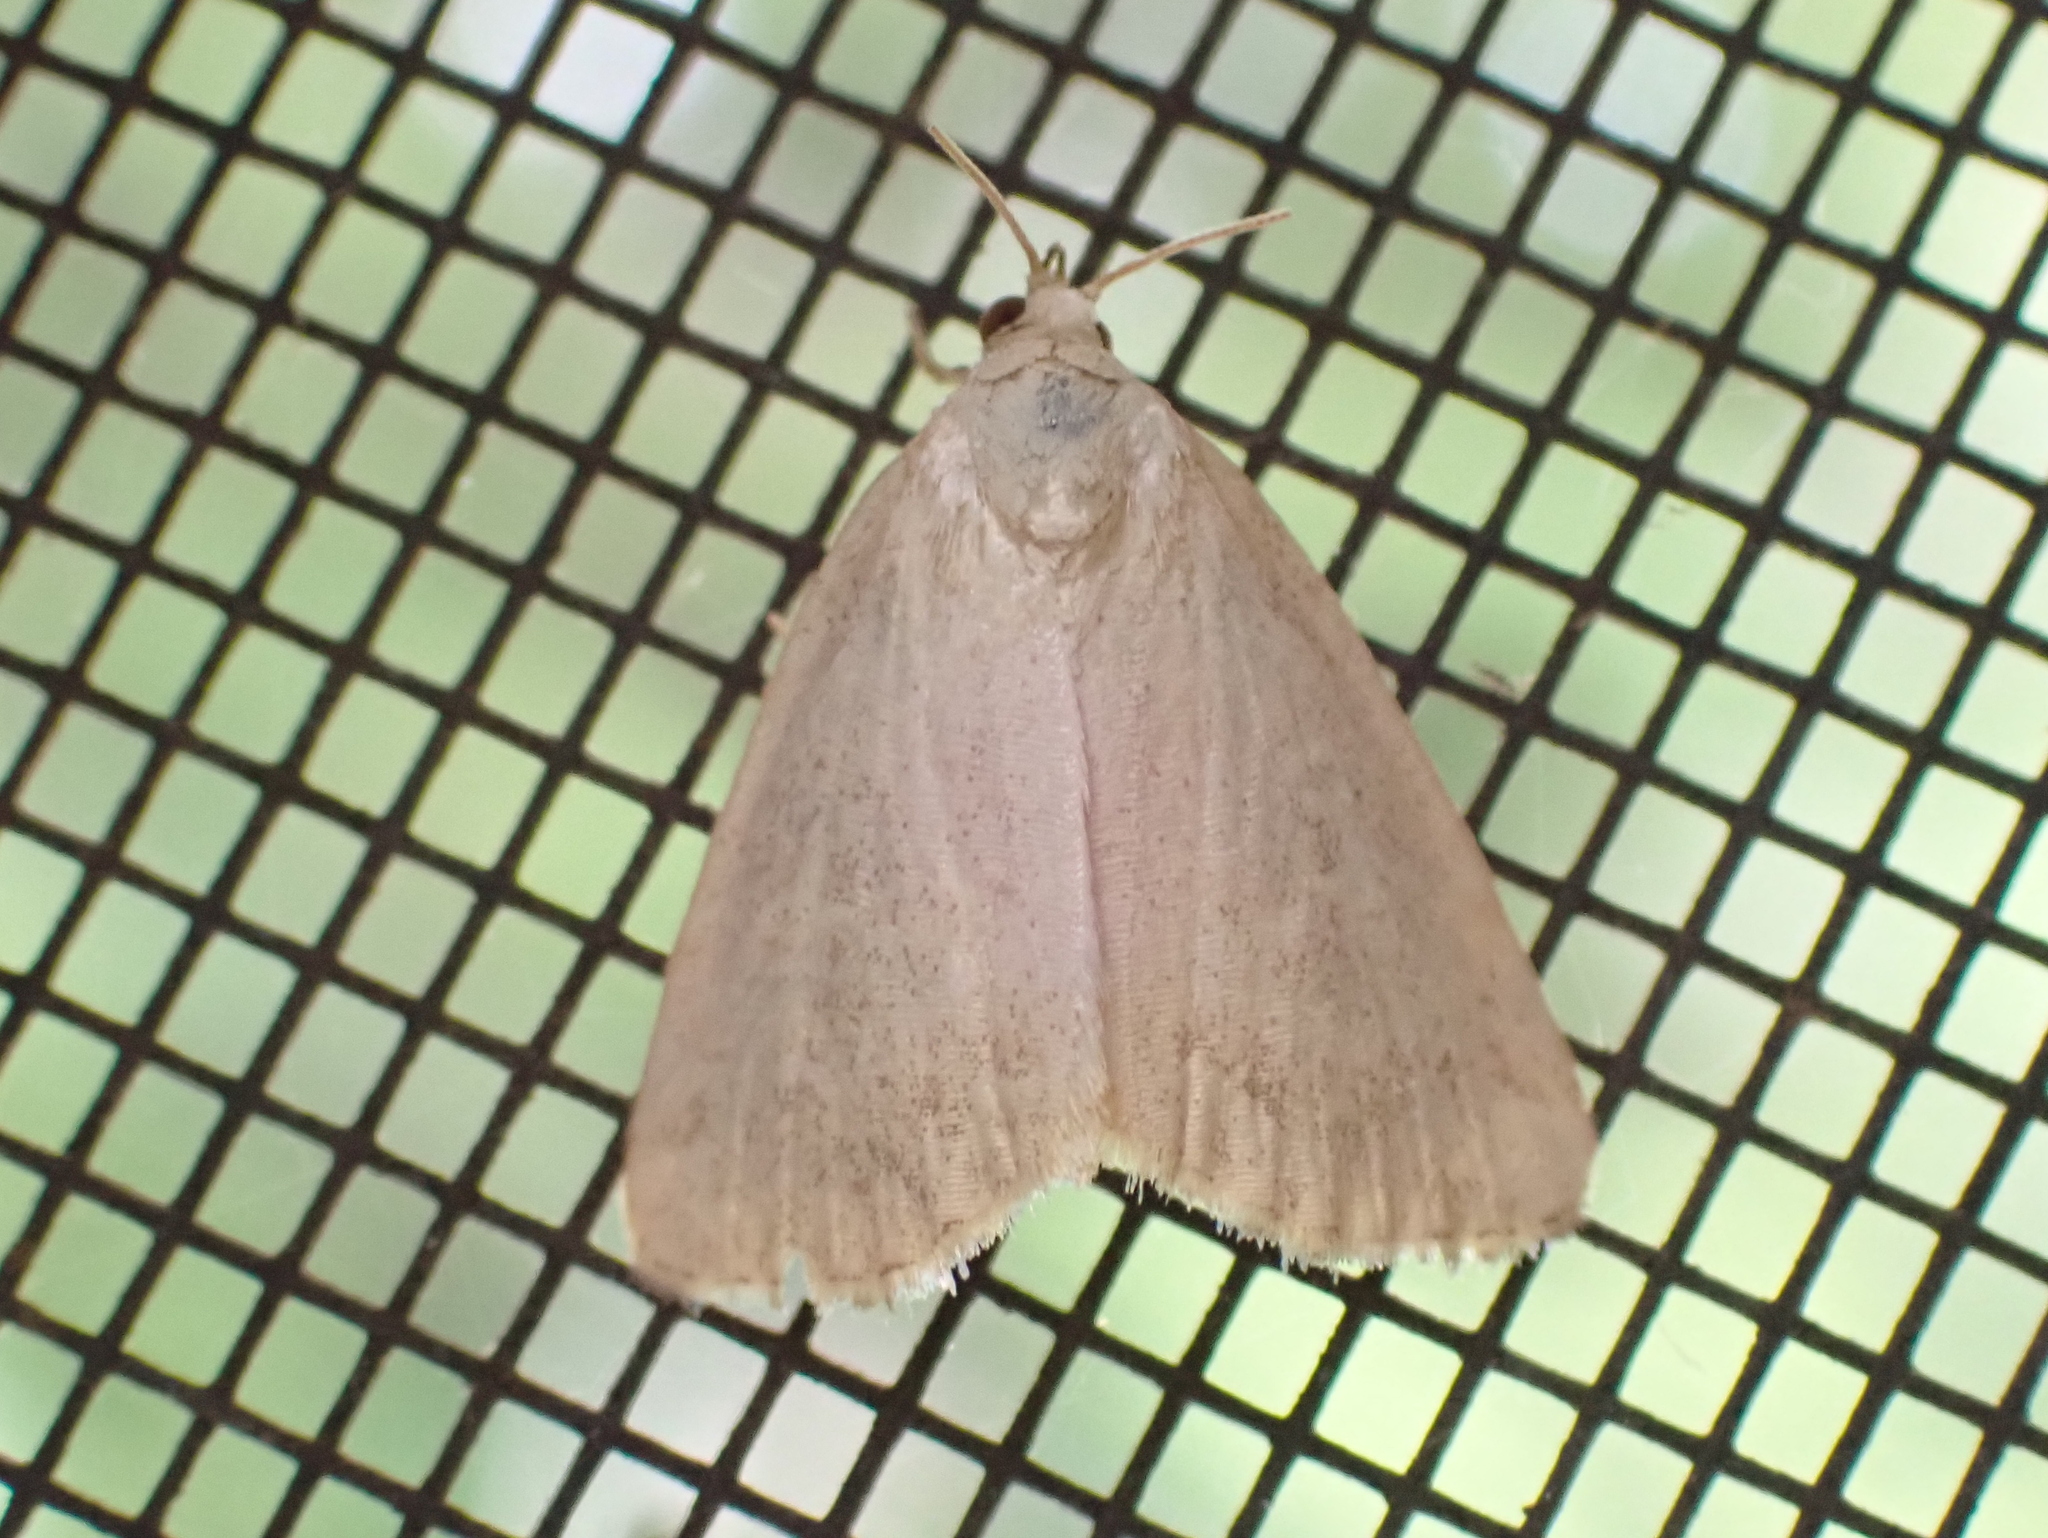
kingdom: Animalia
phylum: Arthropoda
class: Insecta
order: Lepidoptera
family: Noctuidae
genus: Protodeltote
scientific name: Protodeltote albidula
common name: Pale glyph
